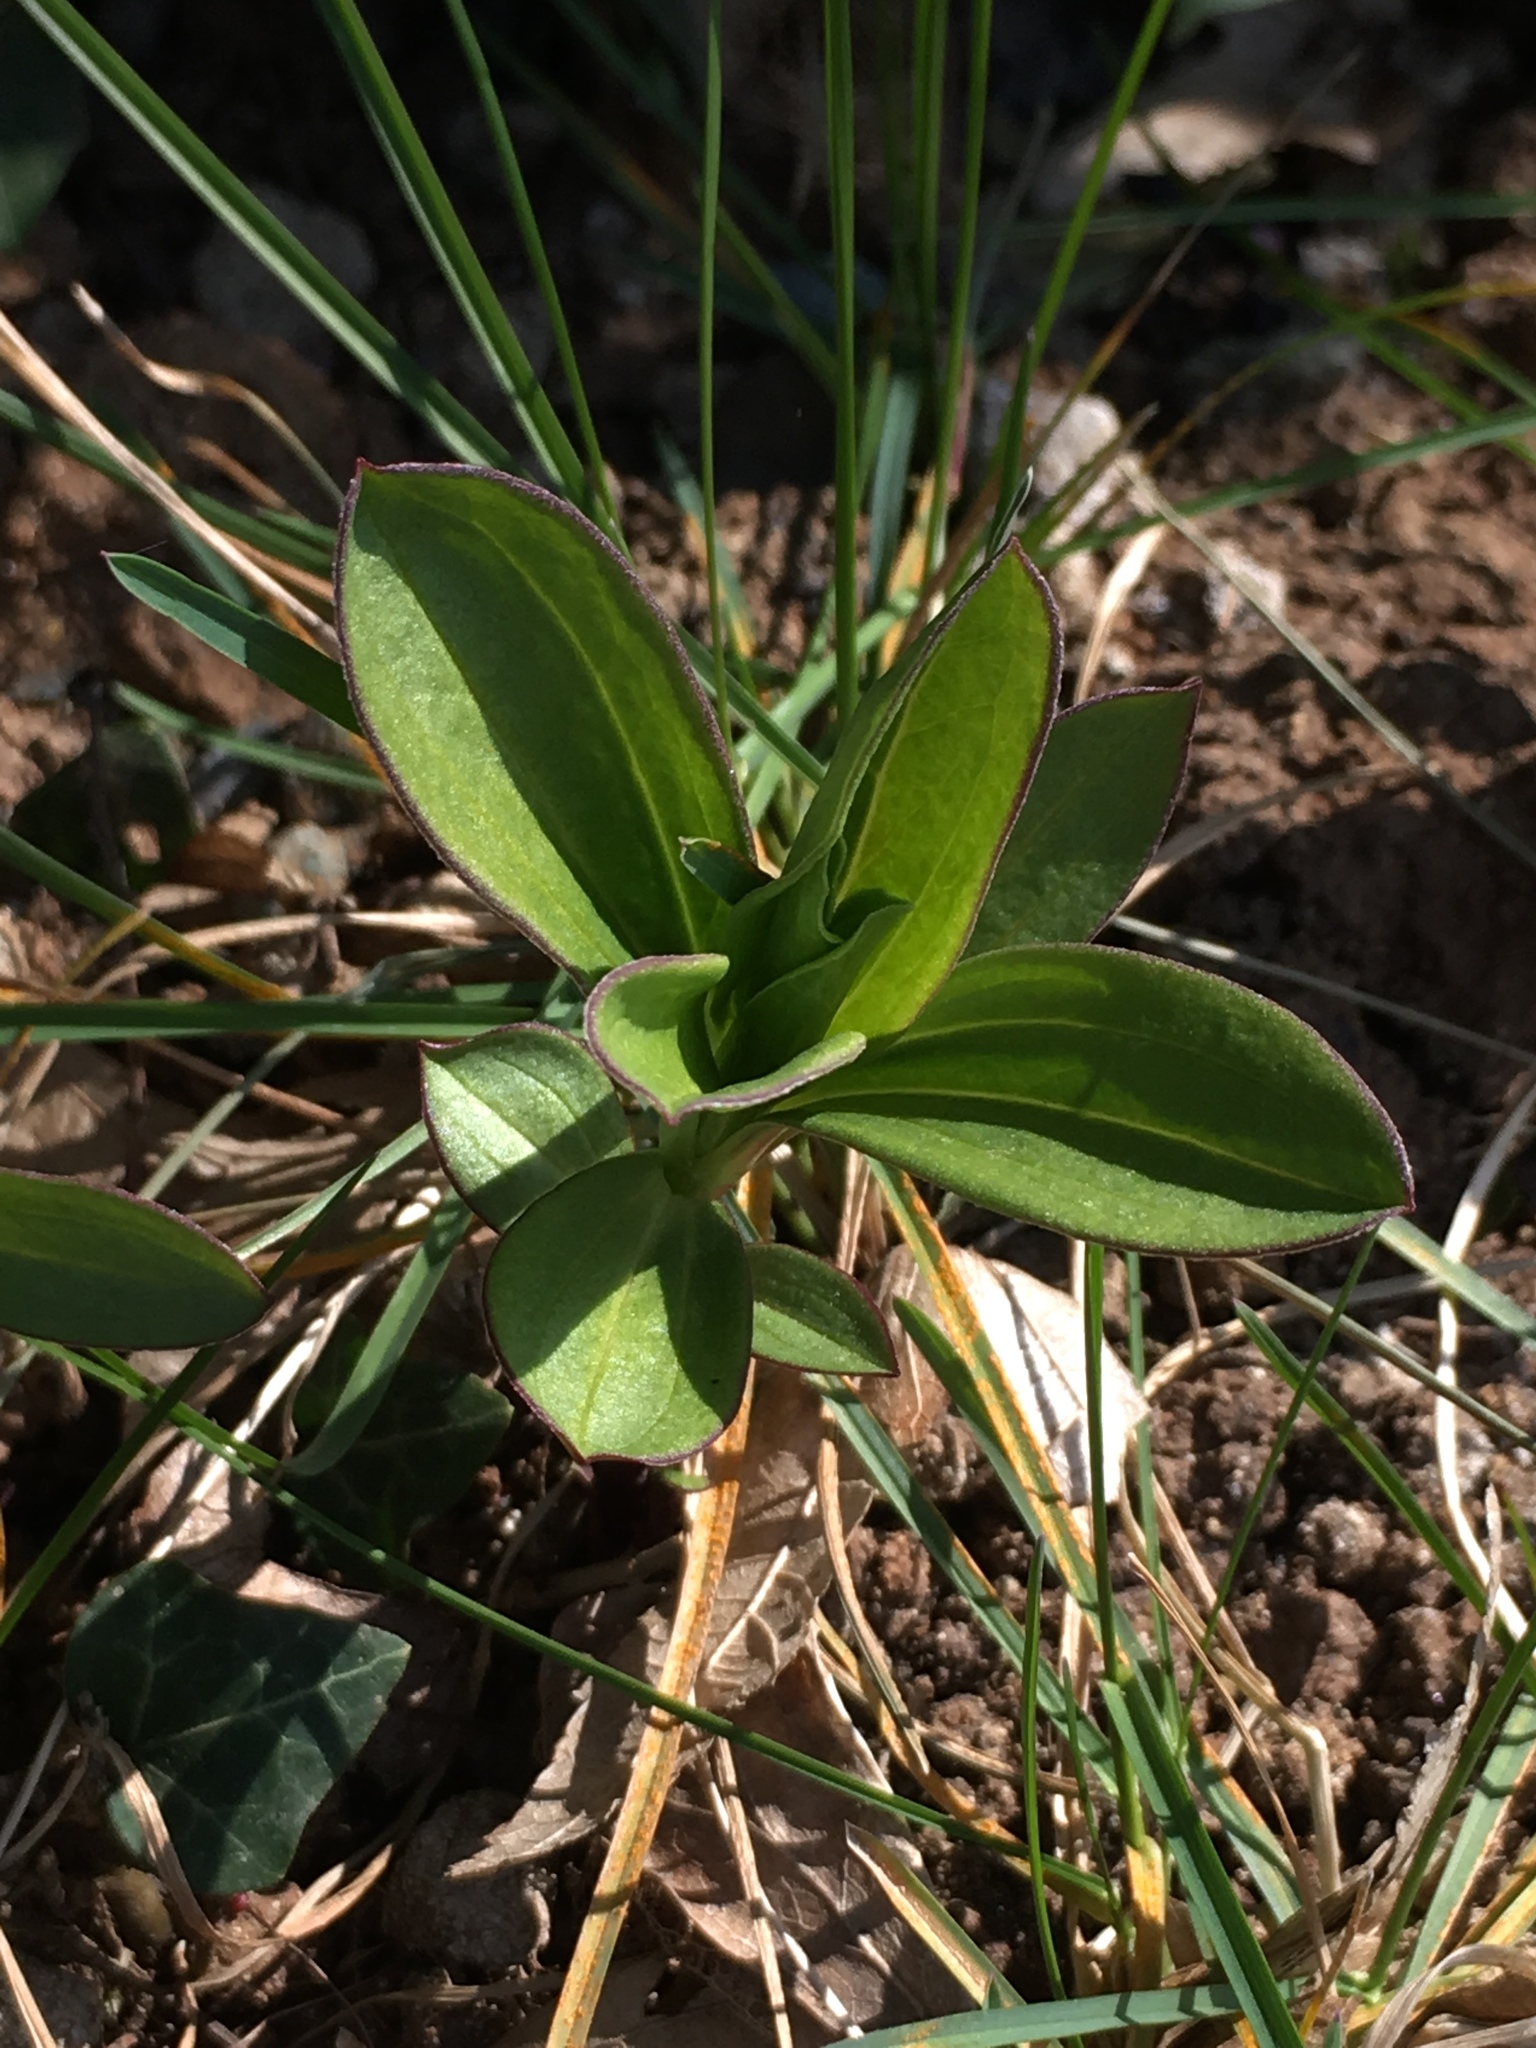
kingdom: Plantae
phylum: Tracheophyta
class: Magnoliopsida
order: Caryophyllales
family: Caryophyllaceae
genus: Saponaria
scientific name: Saponaria officinalis
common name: Soapwort
